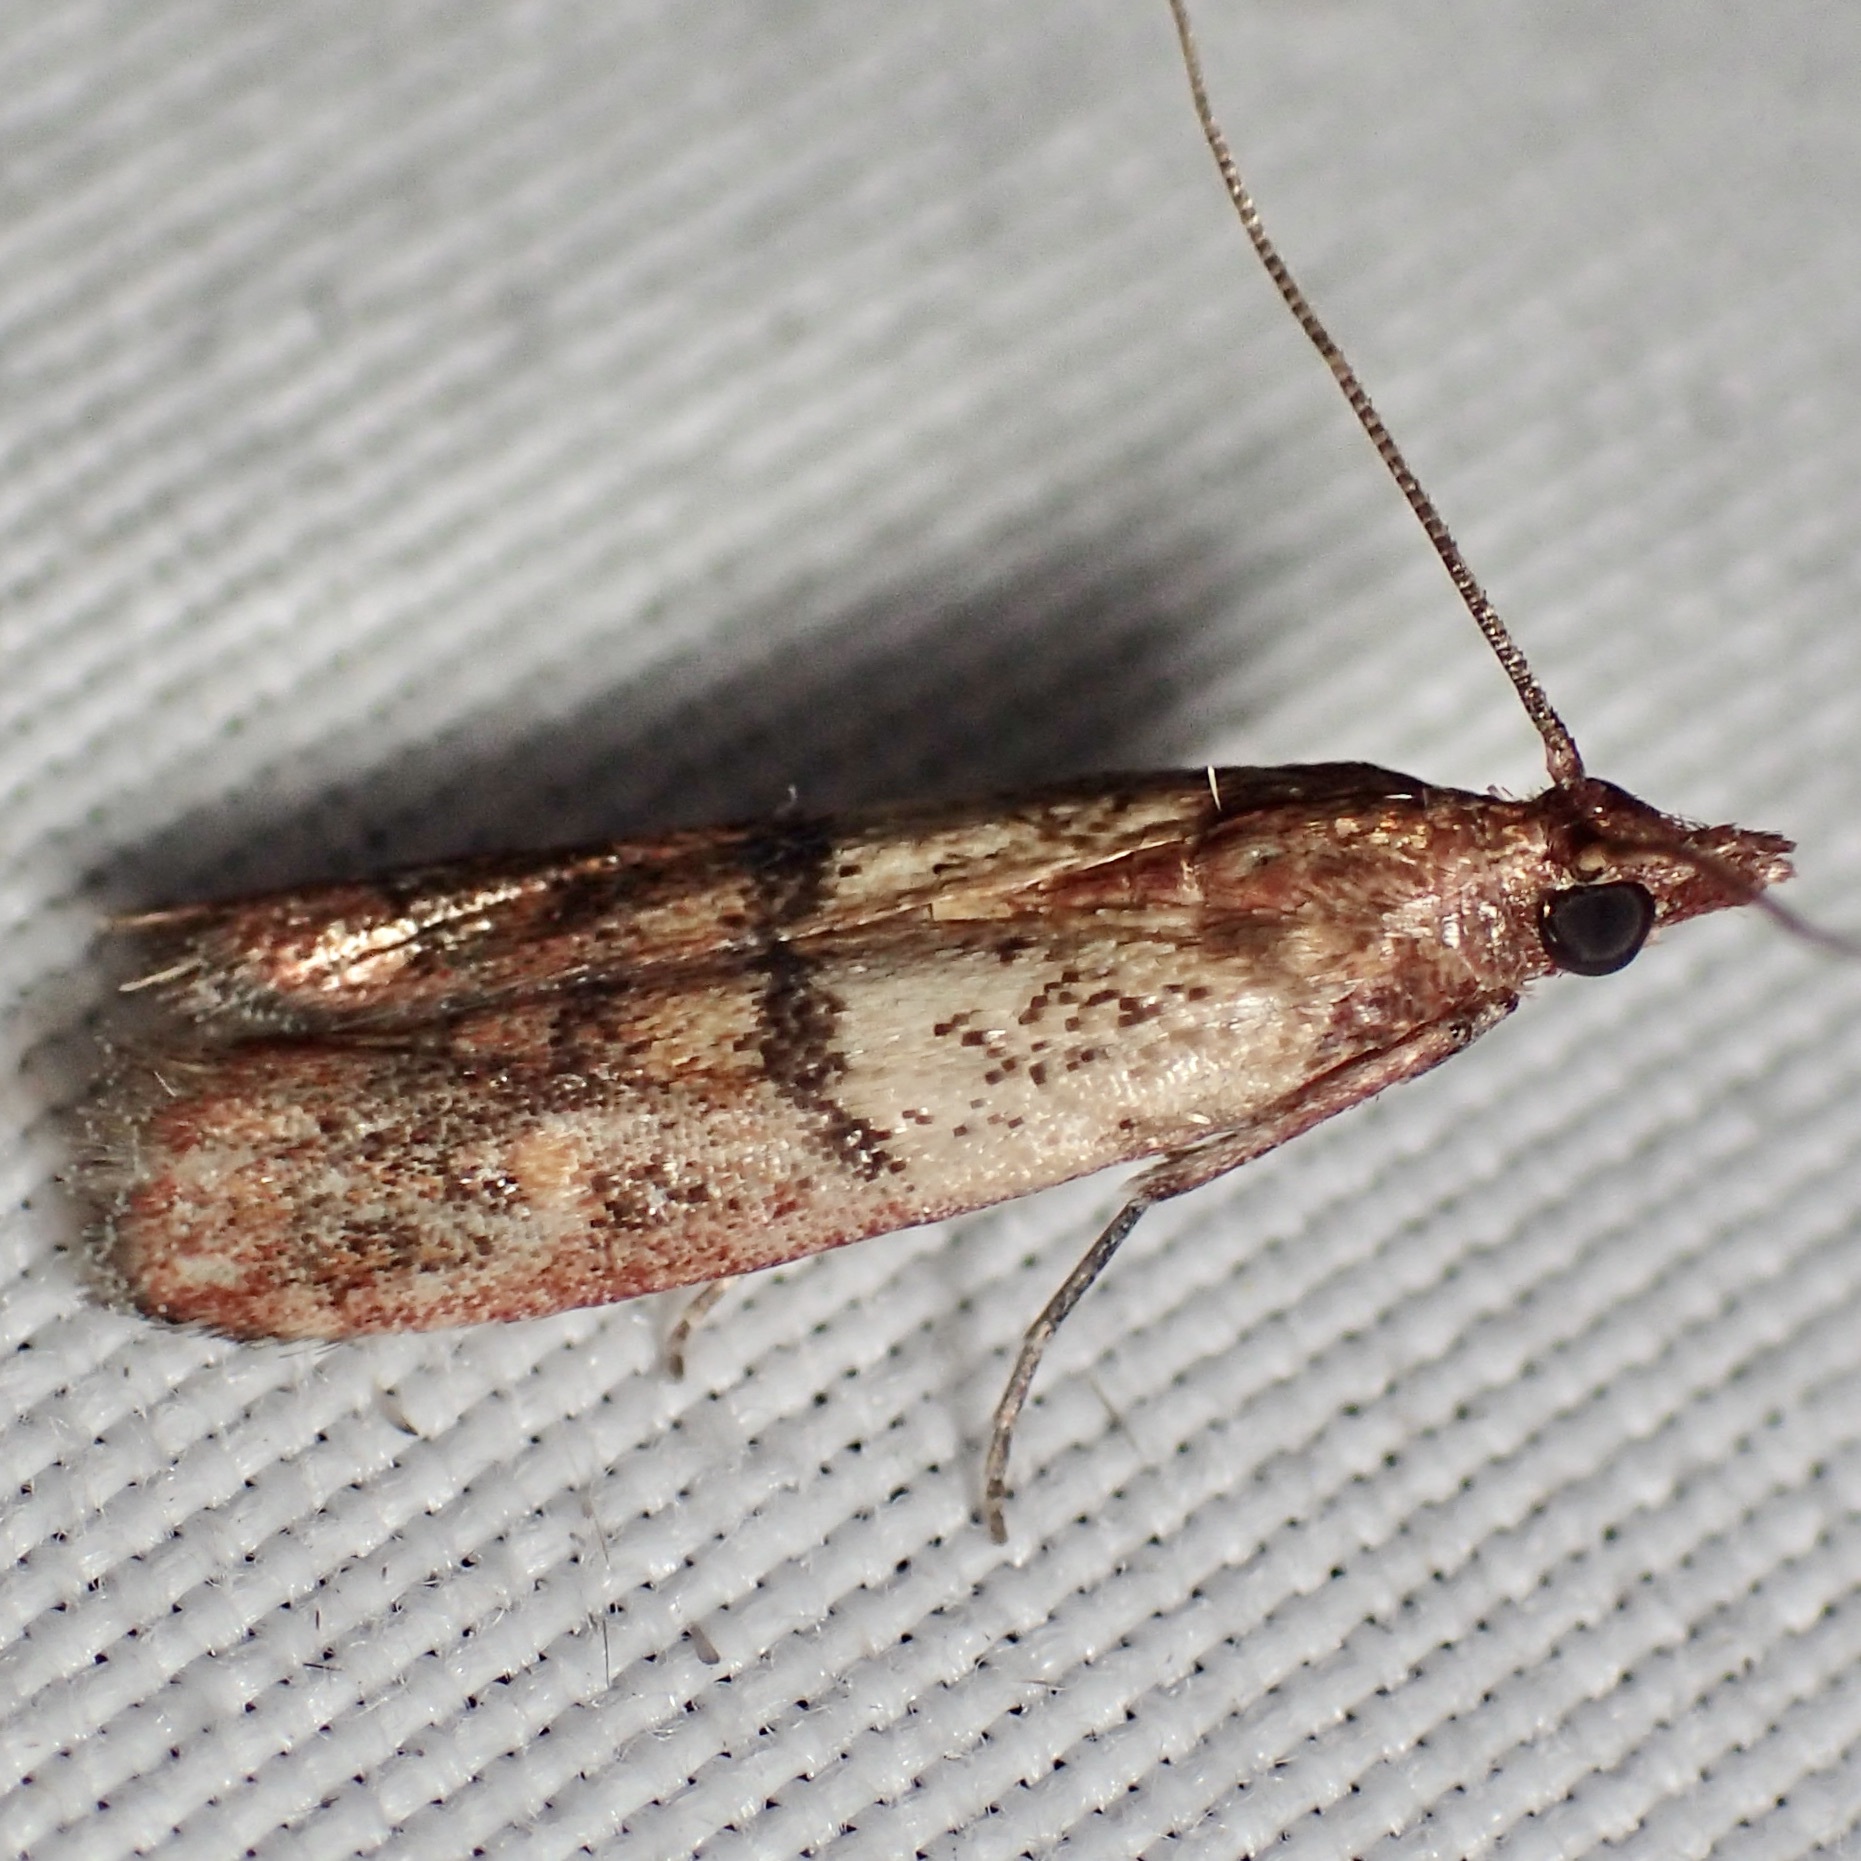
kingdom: Animalia
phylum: Arthropoda
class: Insecta
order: Lepidoptera
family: Pyralidae
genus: Plodia
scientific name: Plodia interpunctella
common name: Indian meal moth
